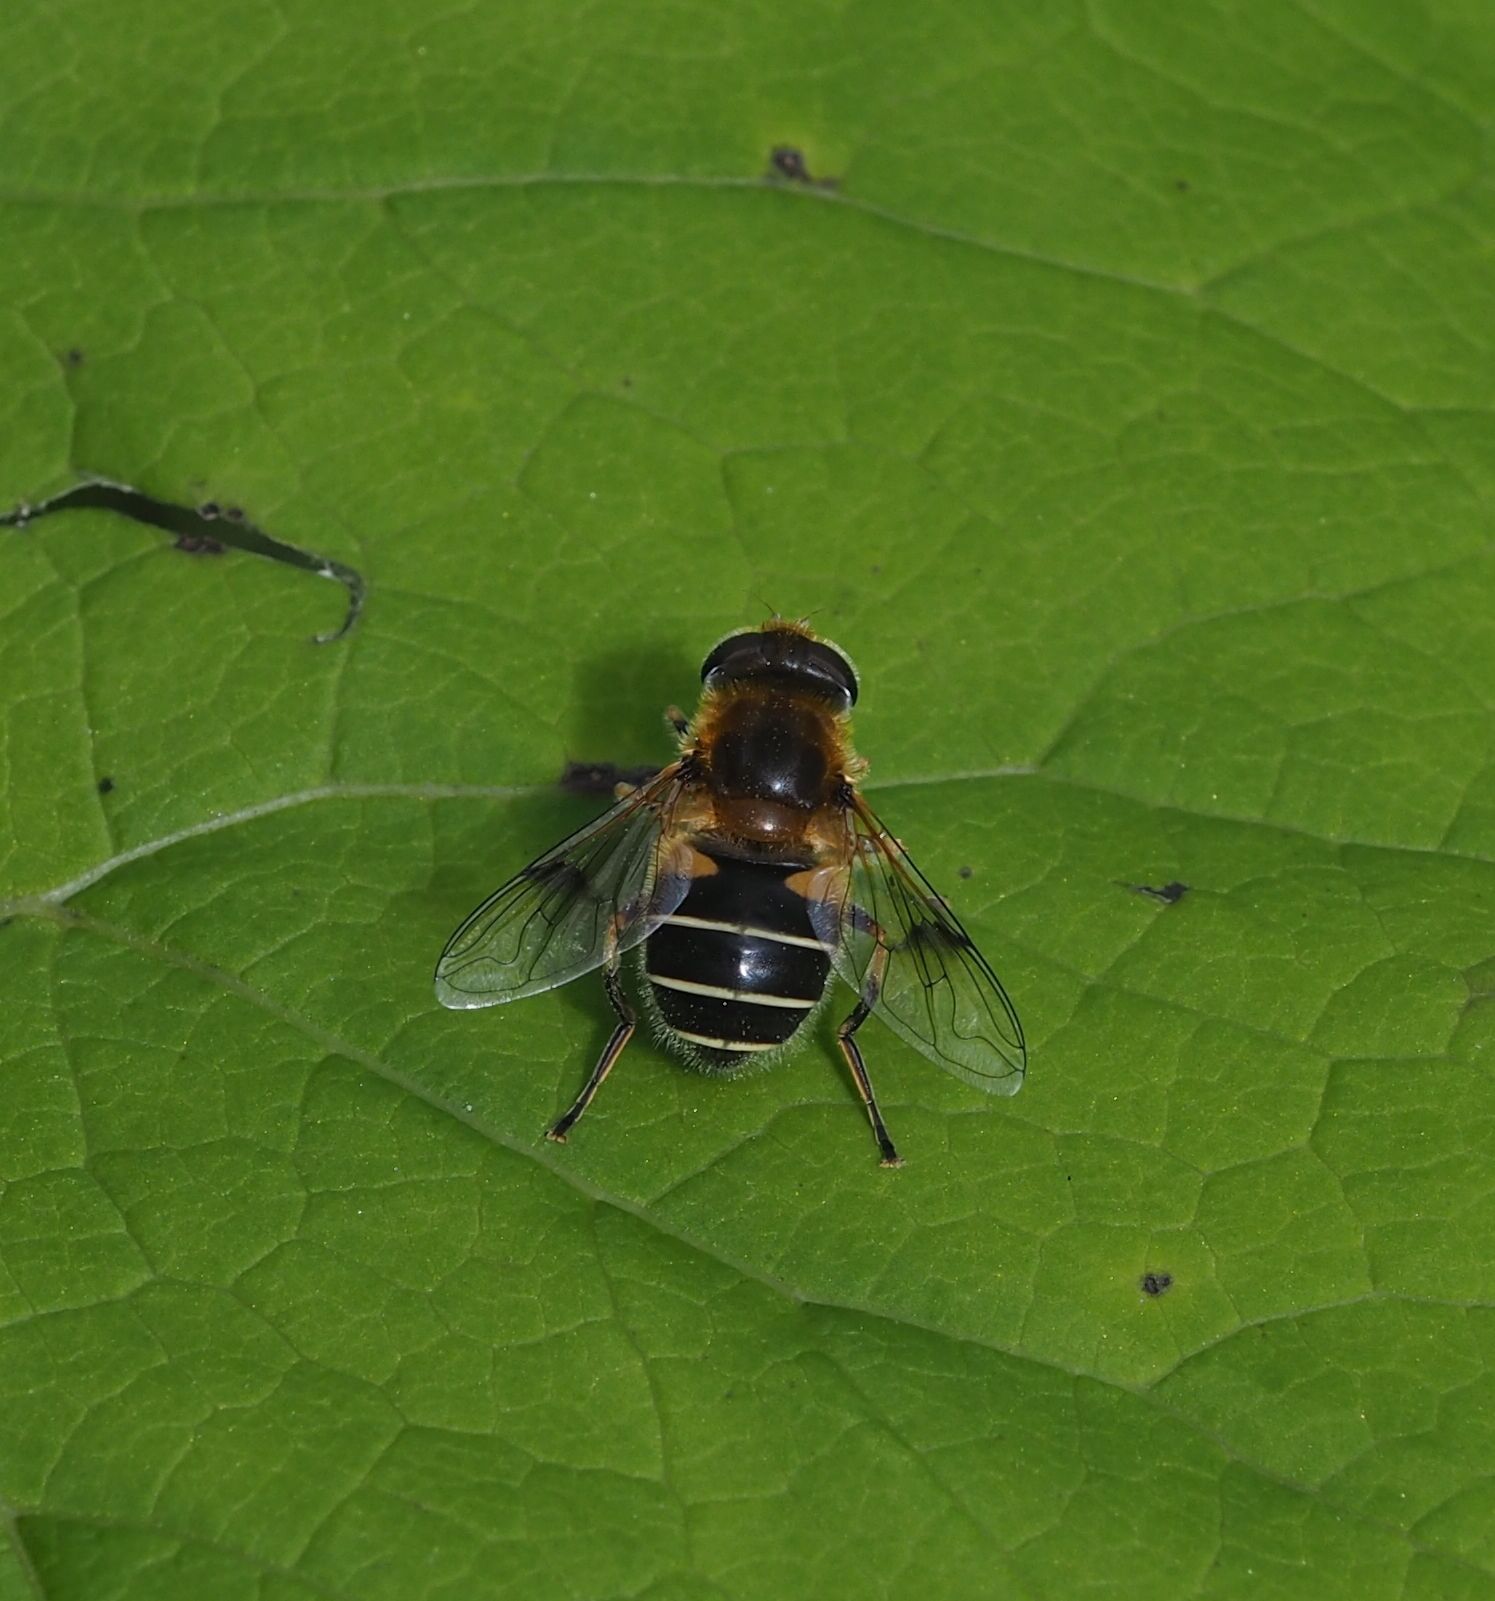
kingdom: Animalia
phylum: Arthropoda
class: Insecta
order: Diptera
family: Syrphidae
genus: Eristalis
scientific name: Eristalis jugorum
